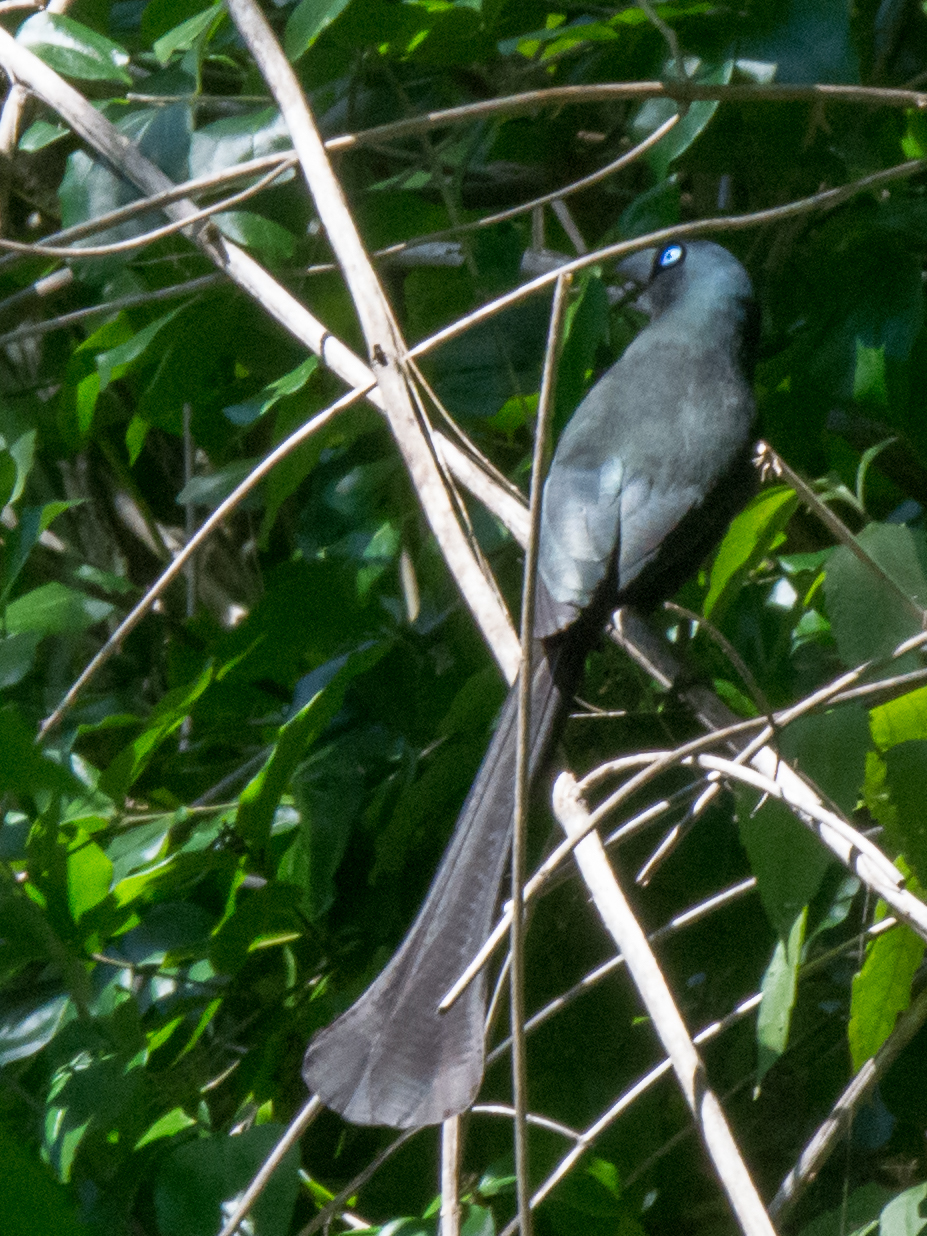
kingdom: Animalia
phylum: Chordata
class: Aves
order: Passeriformes
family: Corvidae
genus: Crypsirina
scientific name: Crypsirina temia
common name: Racket-tailed treepie
